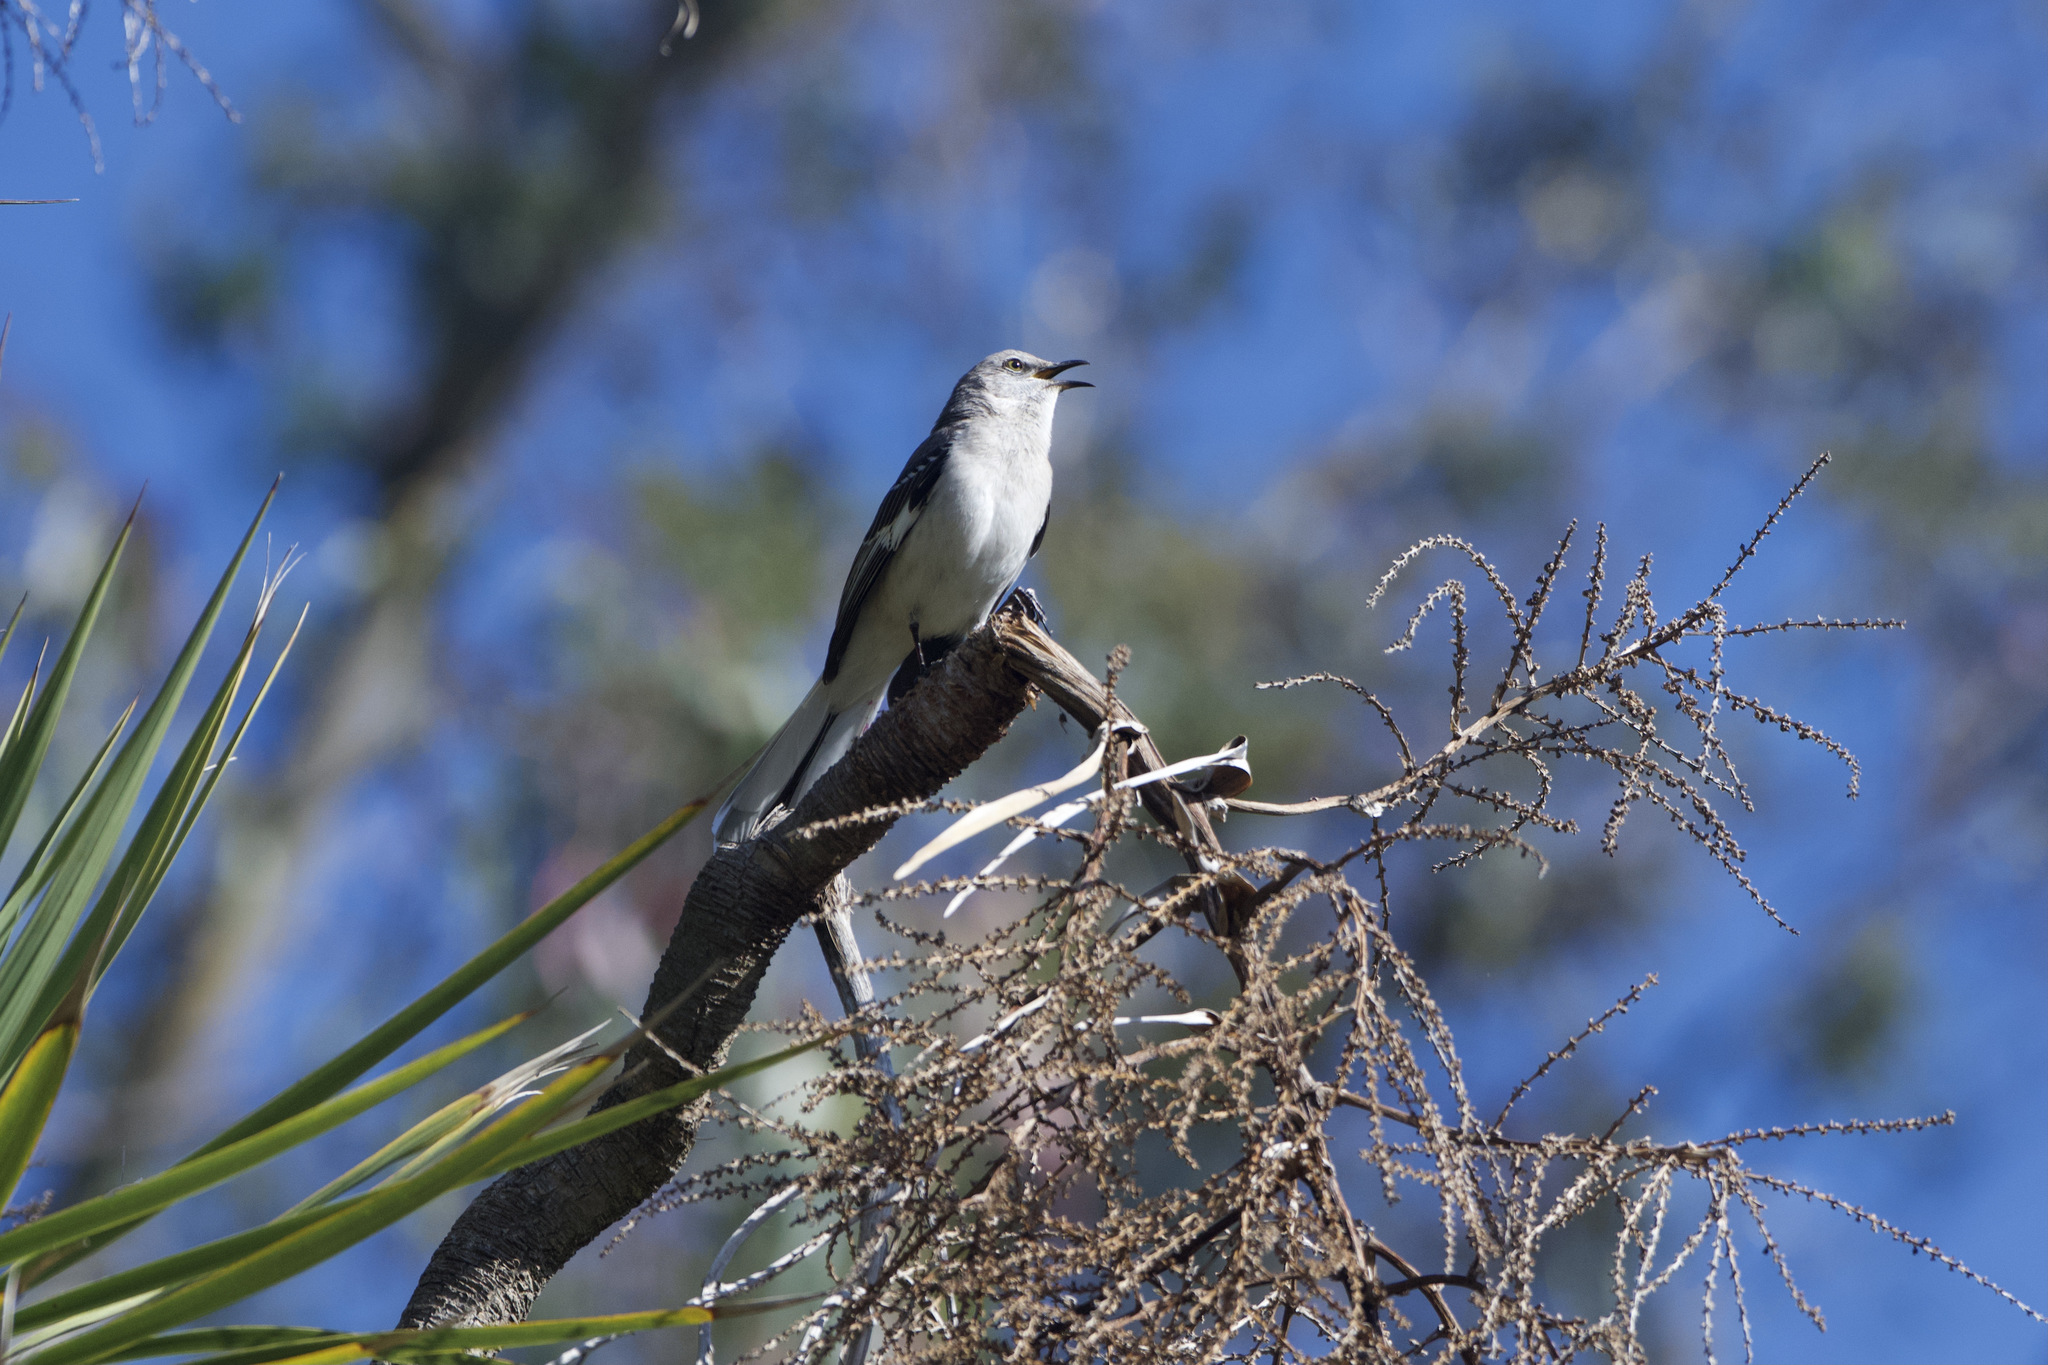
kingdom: Animalia
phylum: Chordata
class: Aves
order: Passeriformes
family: Mimidae
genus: Mimus
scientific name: Mimus polyglottos
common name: Northern mockingbird
